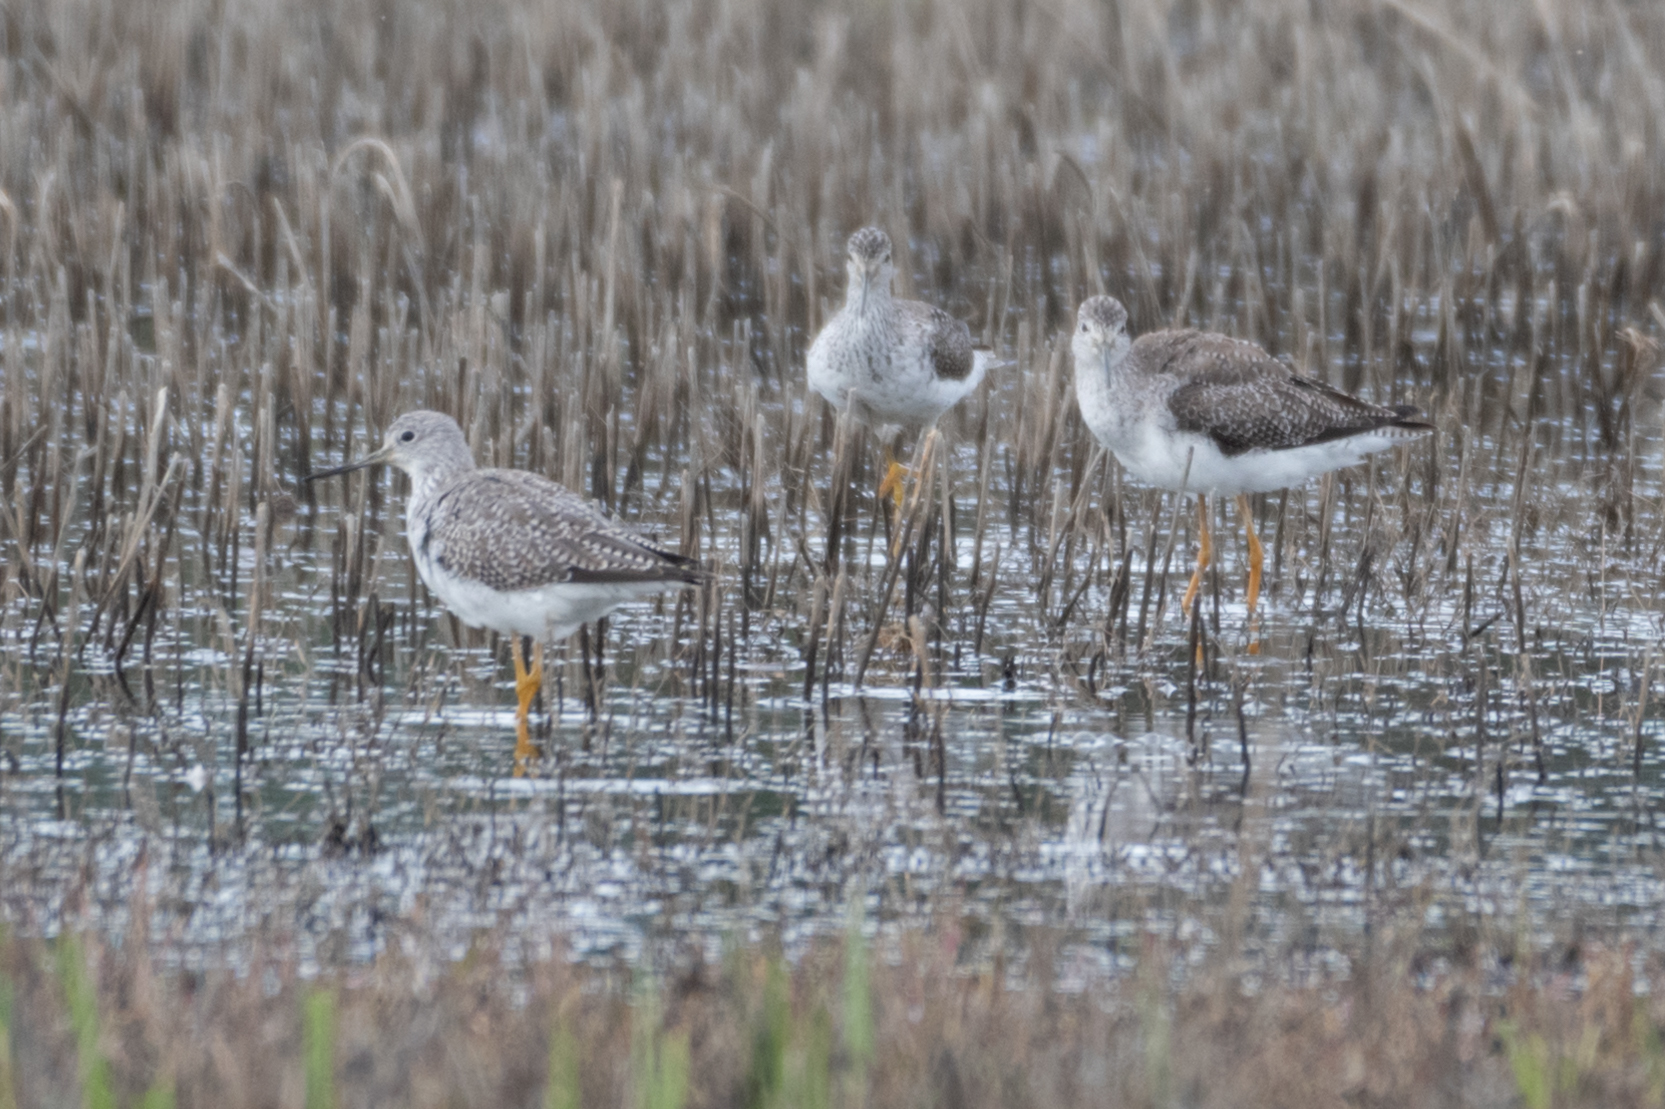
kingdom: Animalia
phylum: Chordata
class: Aves
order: Charadriiformes
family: Scolopacidae
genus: Tringa
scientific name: Tringa melanoleuca
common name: Greater yellowlegs
